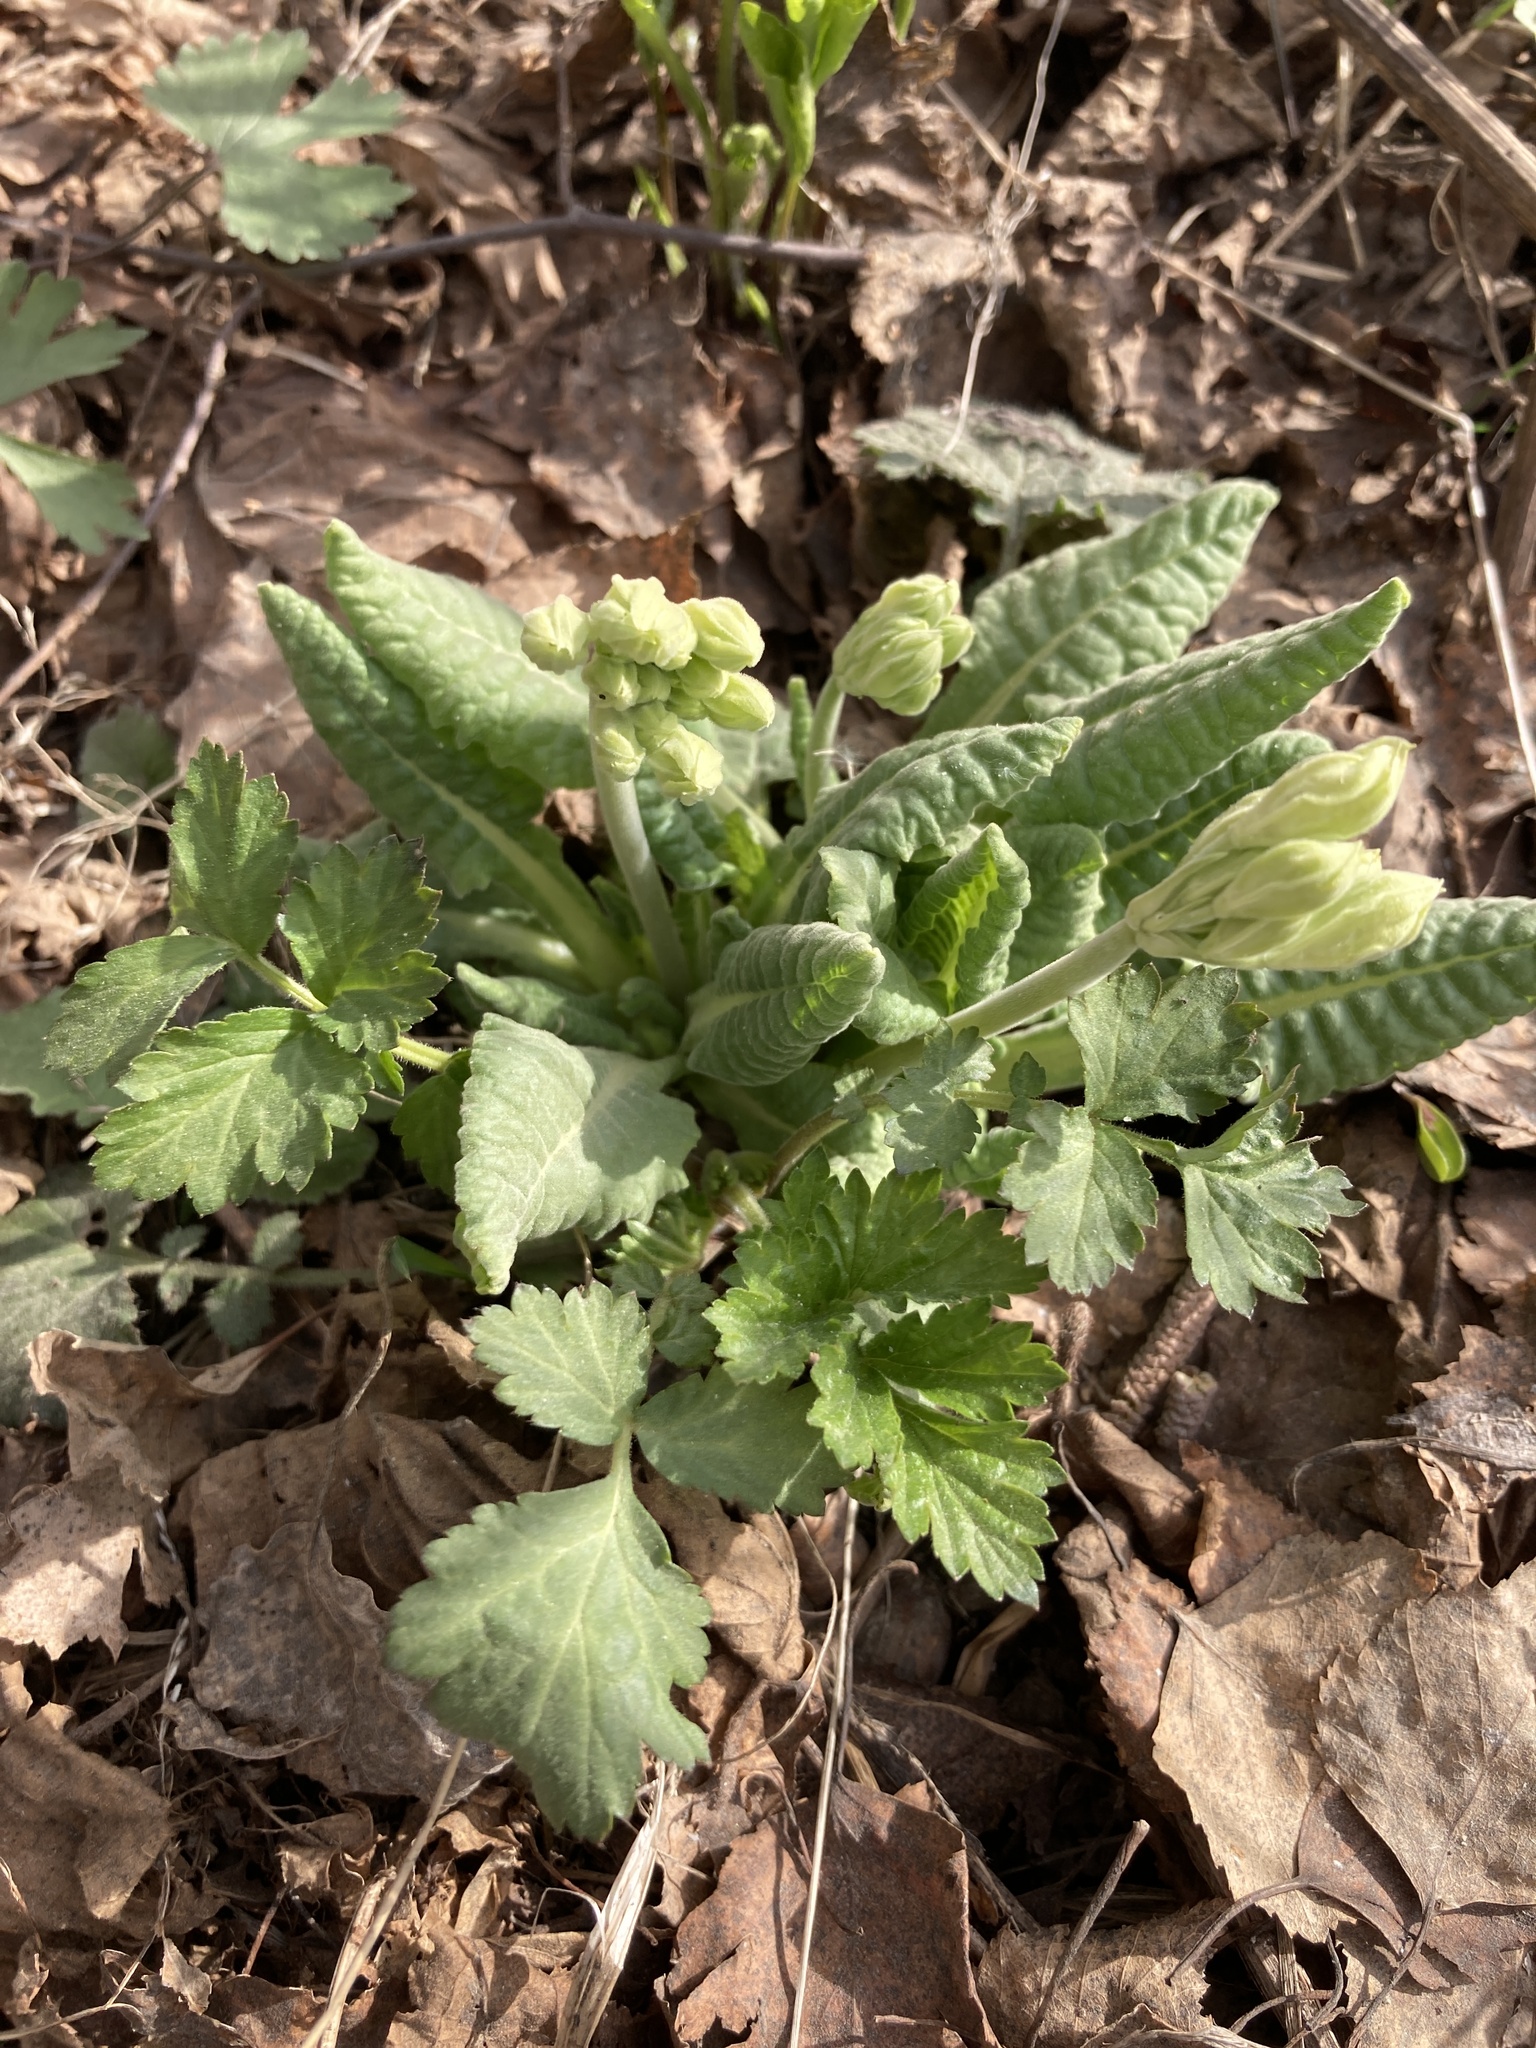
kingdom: Plantae
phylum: Tracheophyta
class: Magnoliopsida
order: Ericales
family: Primulaceae
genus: Primula
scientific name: Primula veris
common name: Cowslip
